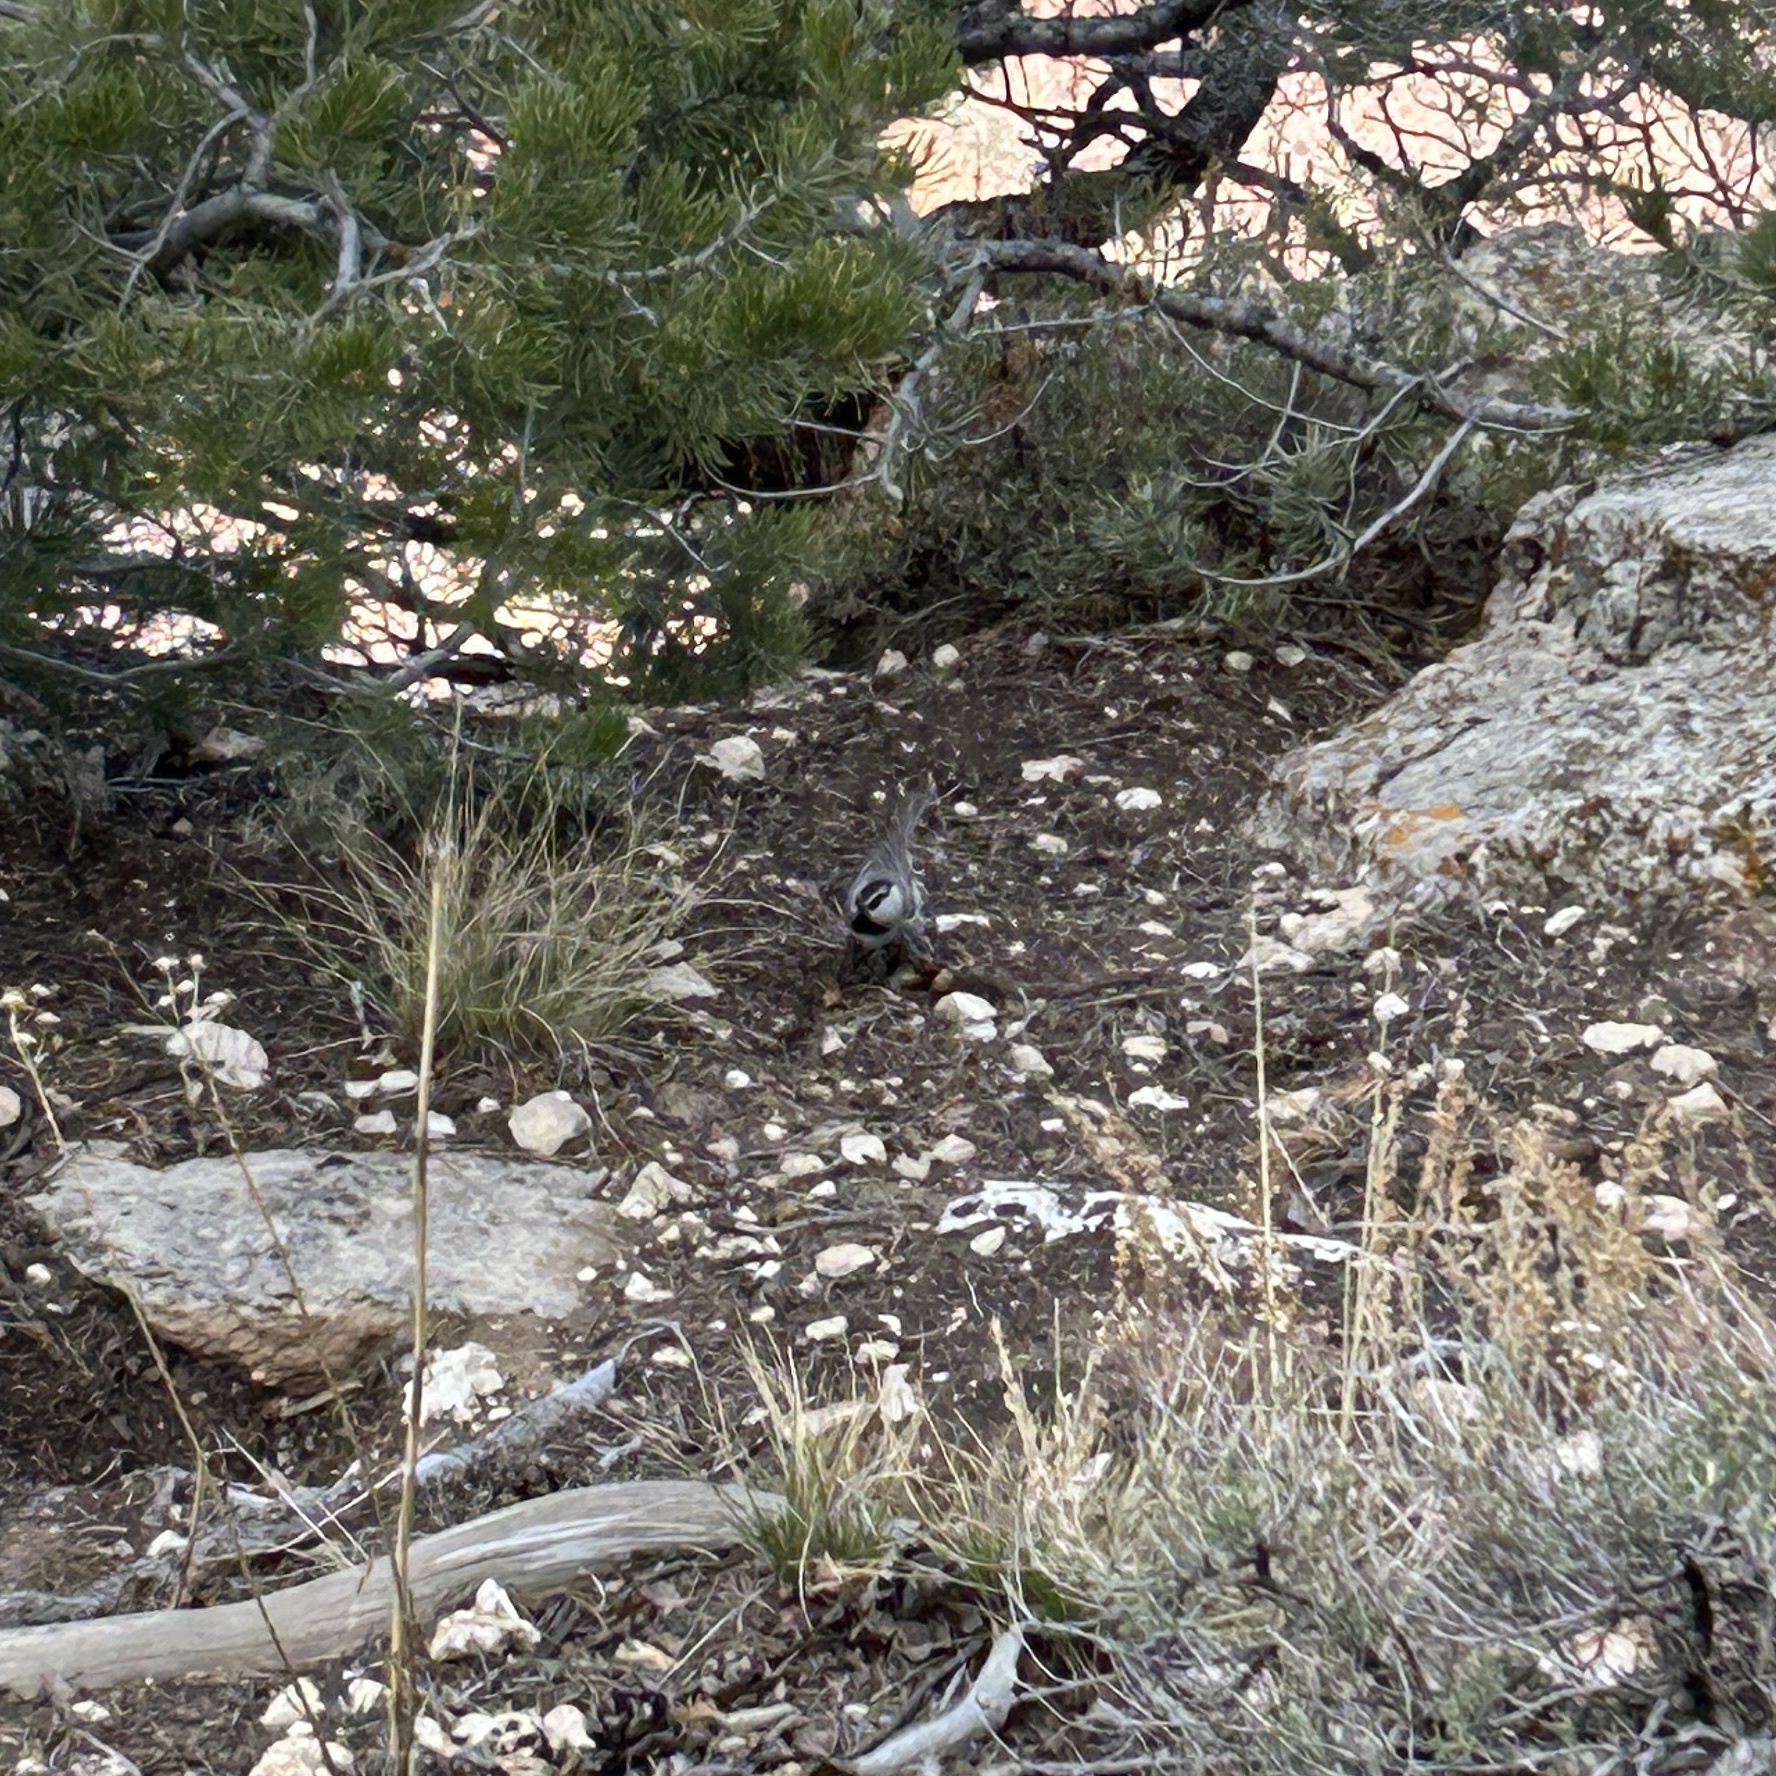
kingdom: Animalia
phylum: Chordata
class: Aves
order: Passeriformes
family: Paridae
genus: Poecile
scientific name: Poecile gambeli
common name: Mountain chickadee
